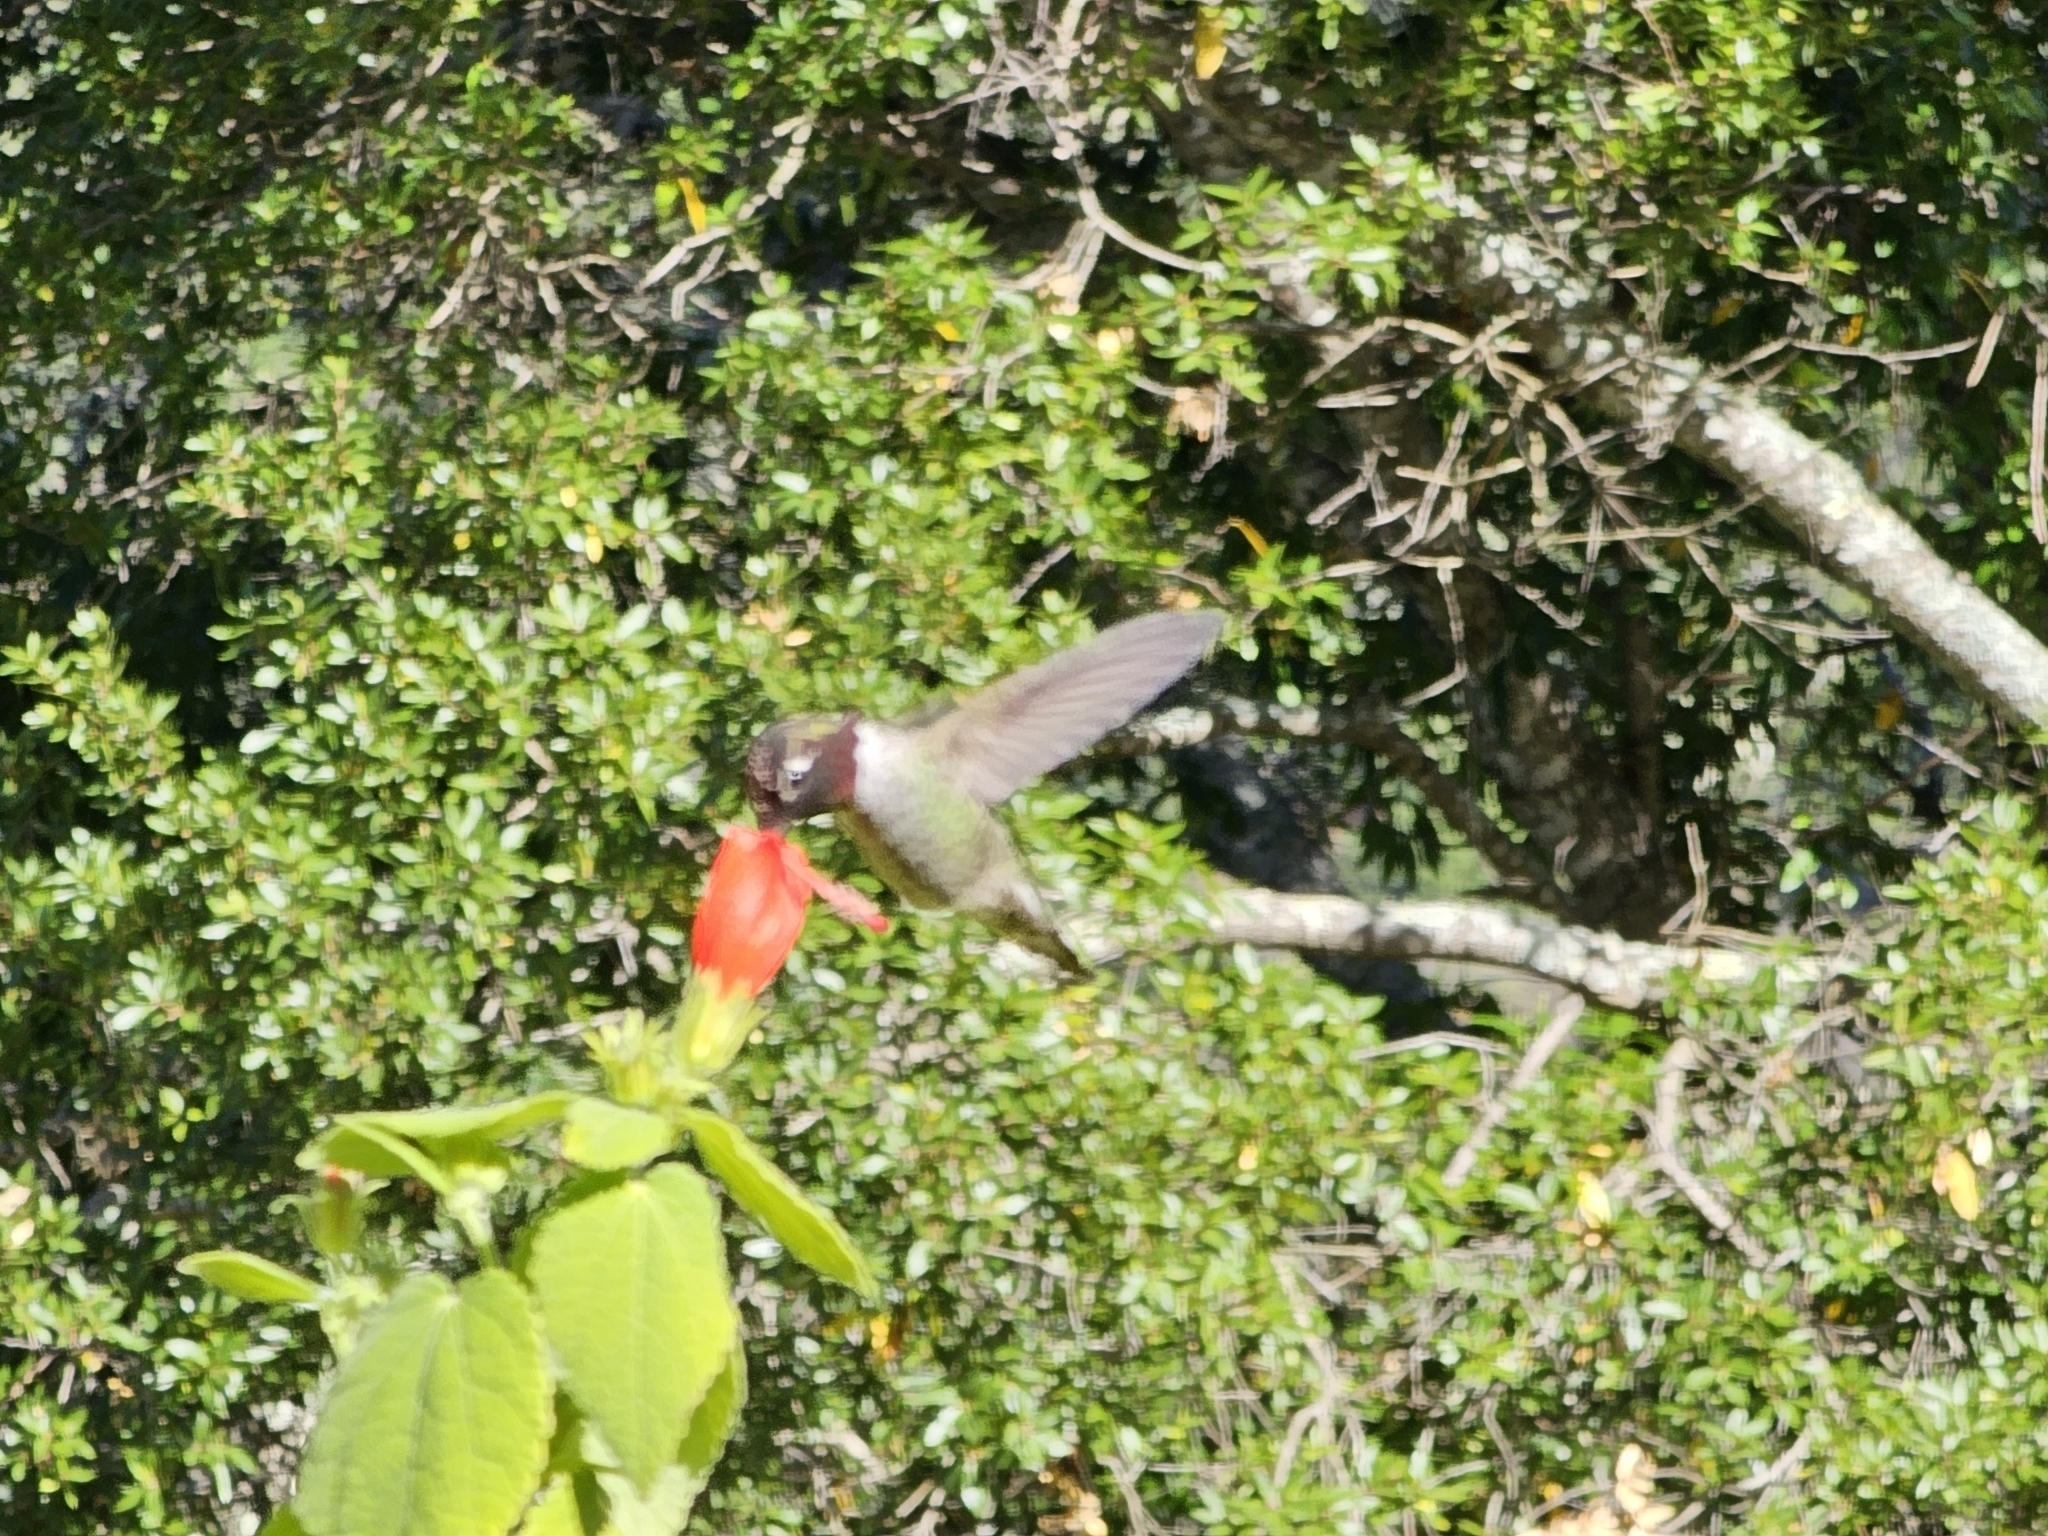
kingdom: Animalia
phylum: Chordata
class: Aves
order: Apodiformes
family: Trochilidae
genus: Calypte
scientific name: Calypte anna
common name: Anna's hummingbird
